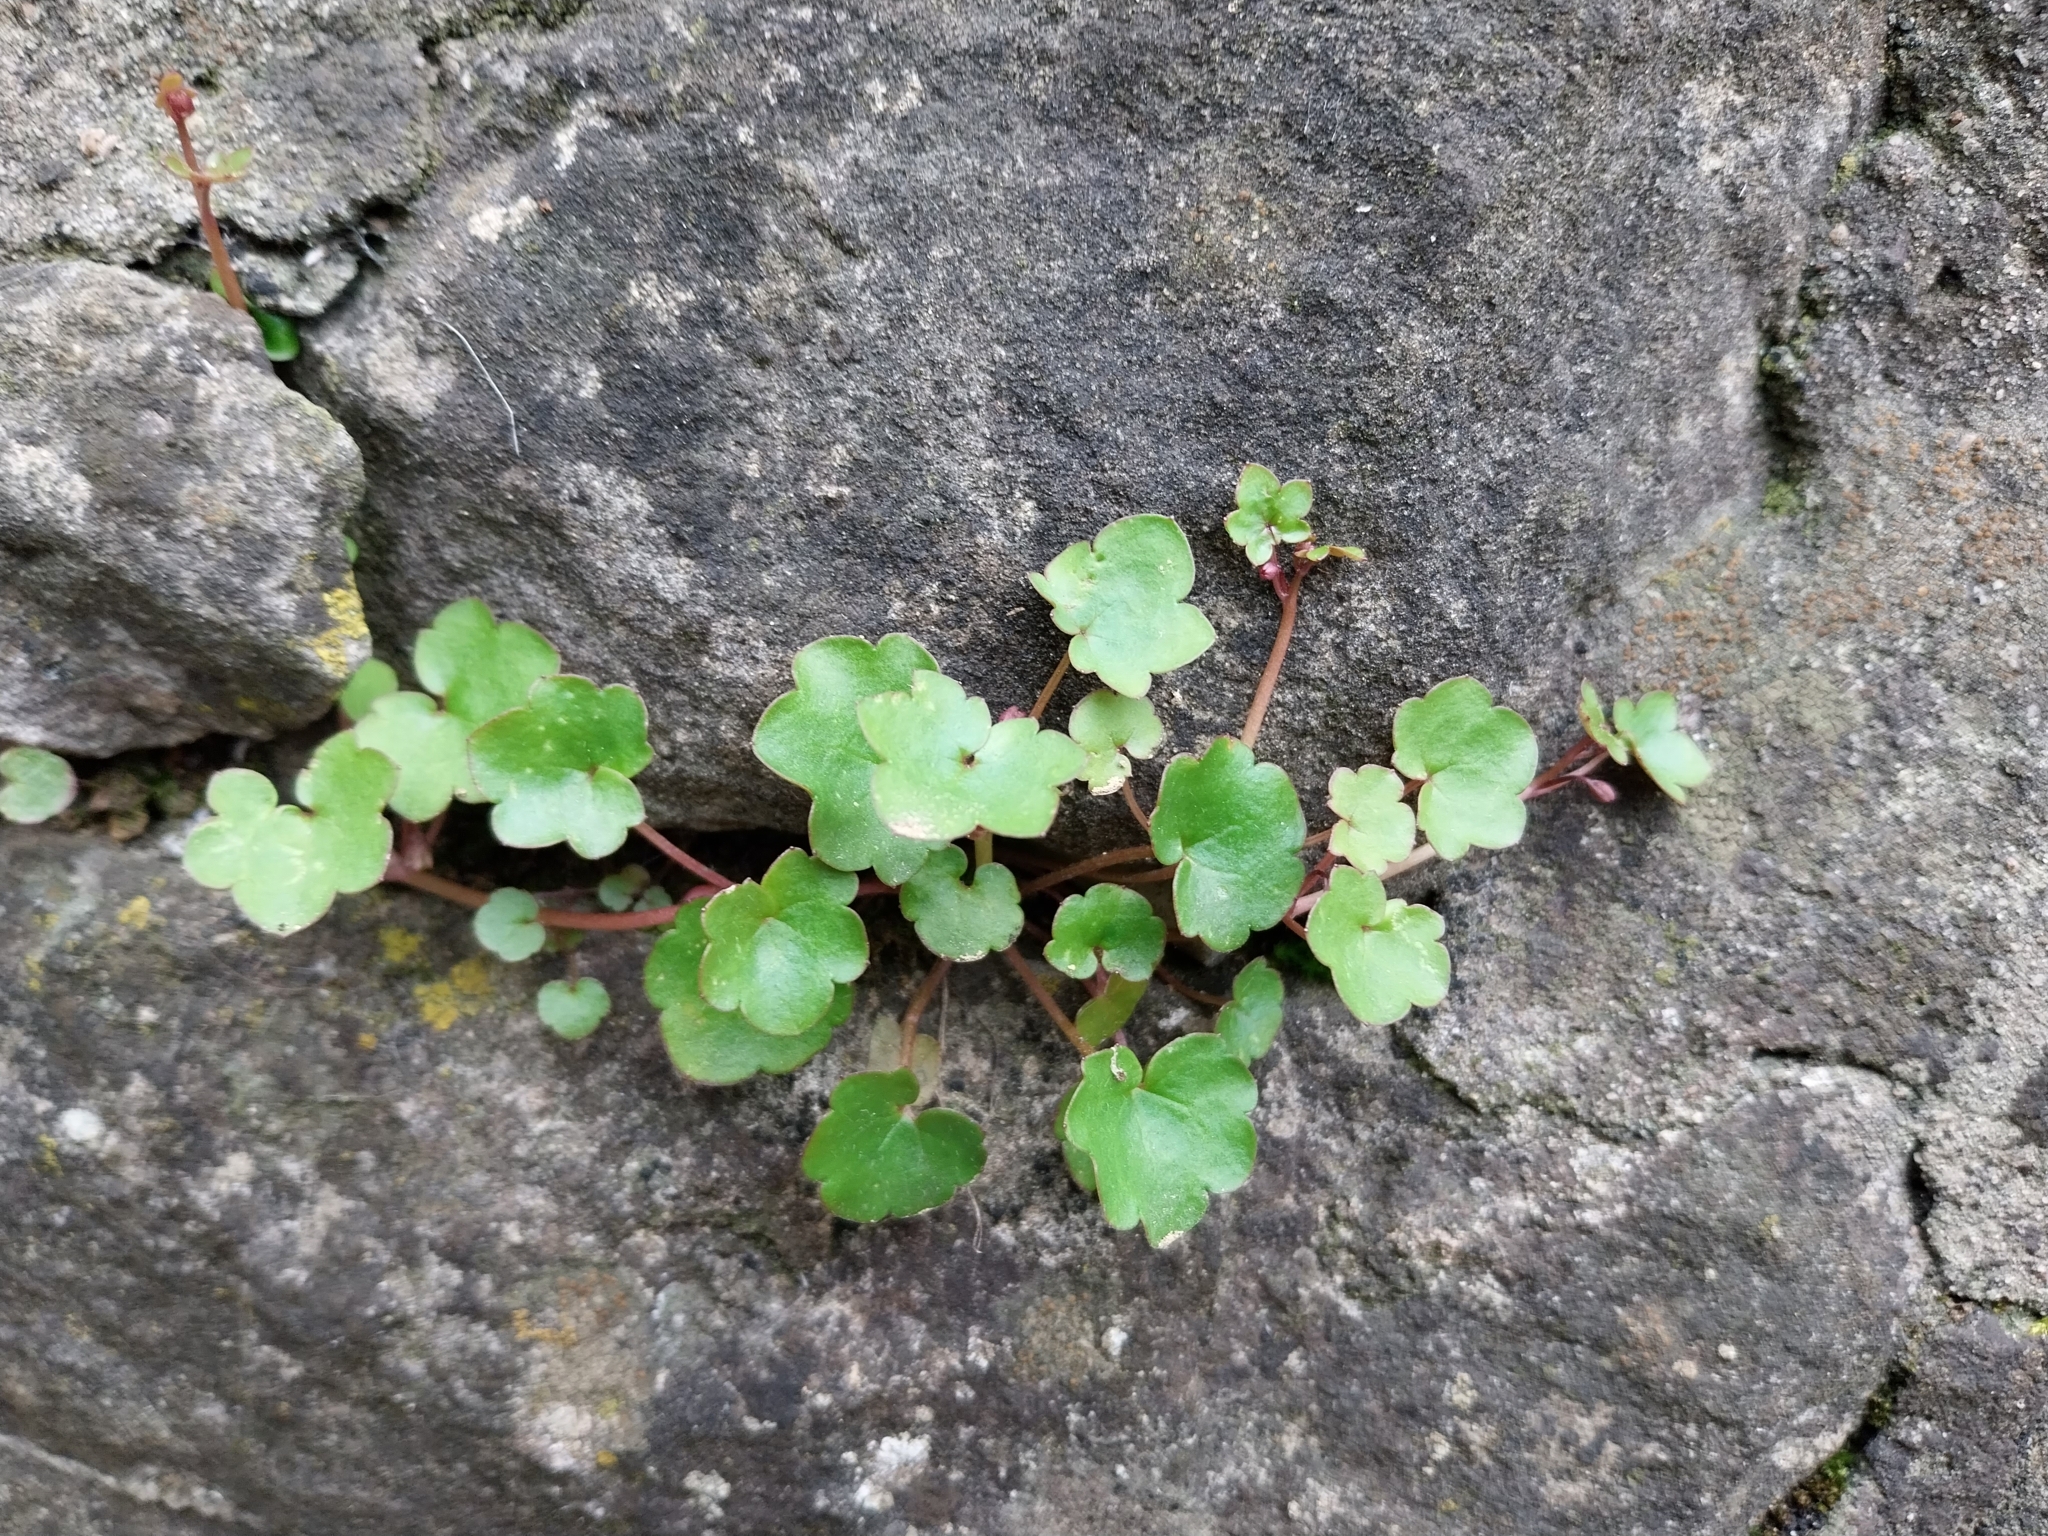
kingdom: Plantae
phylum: Tracheophyta
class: Magnoliopsida
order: Lamiales
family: Plantaginaceae
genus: Cymbalaria
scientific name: Cymbalaria muralis
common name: Ivy-leaved toadflax
